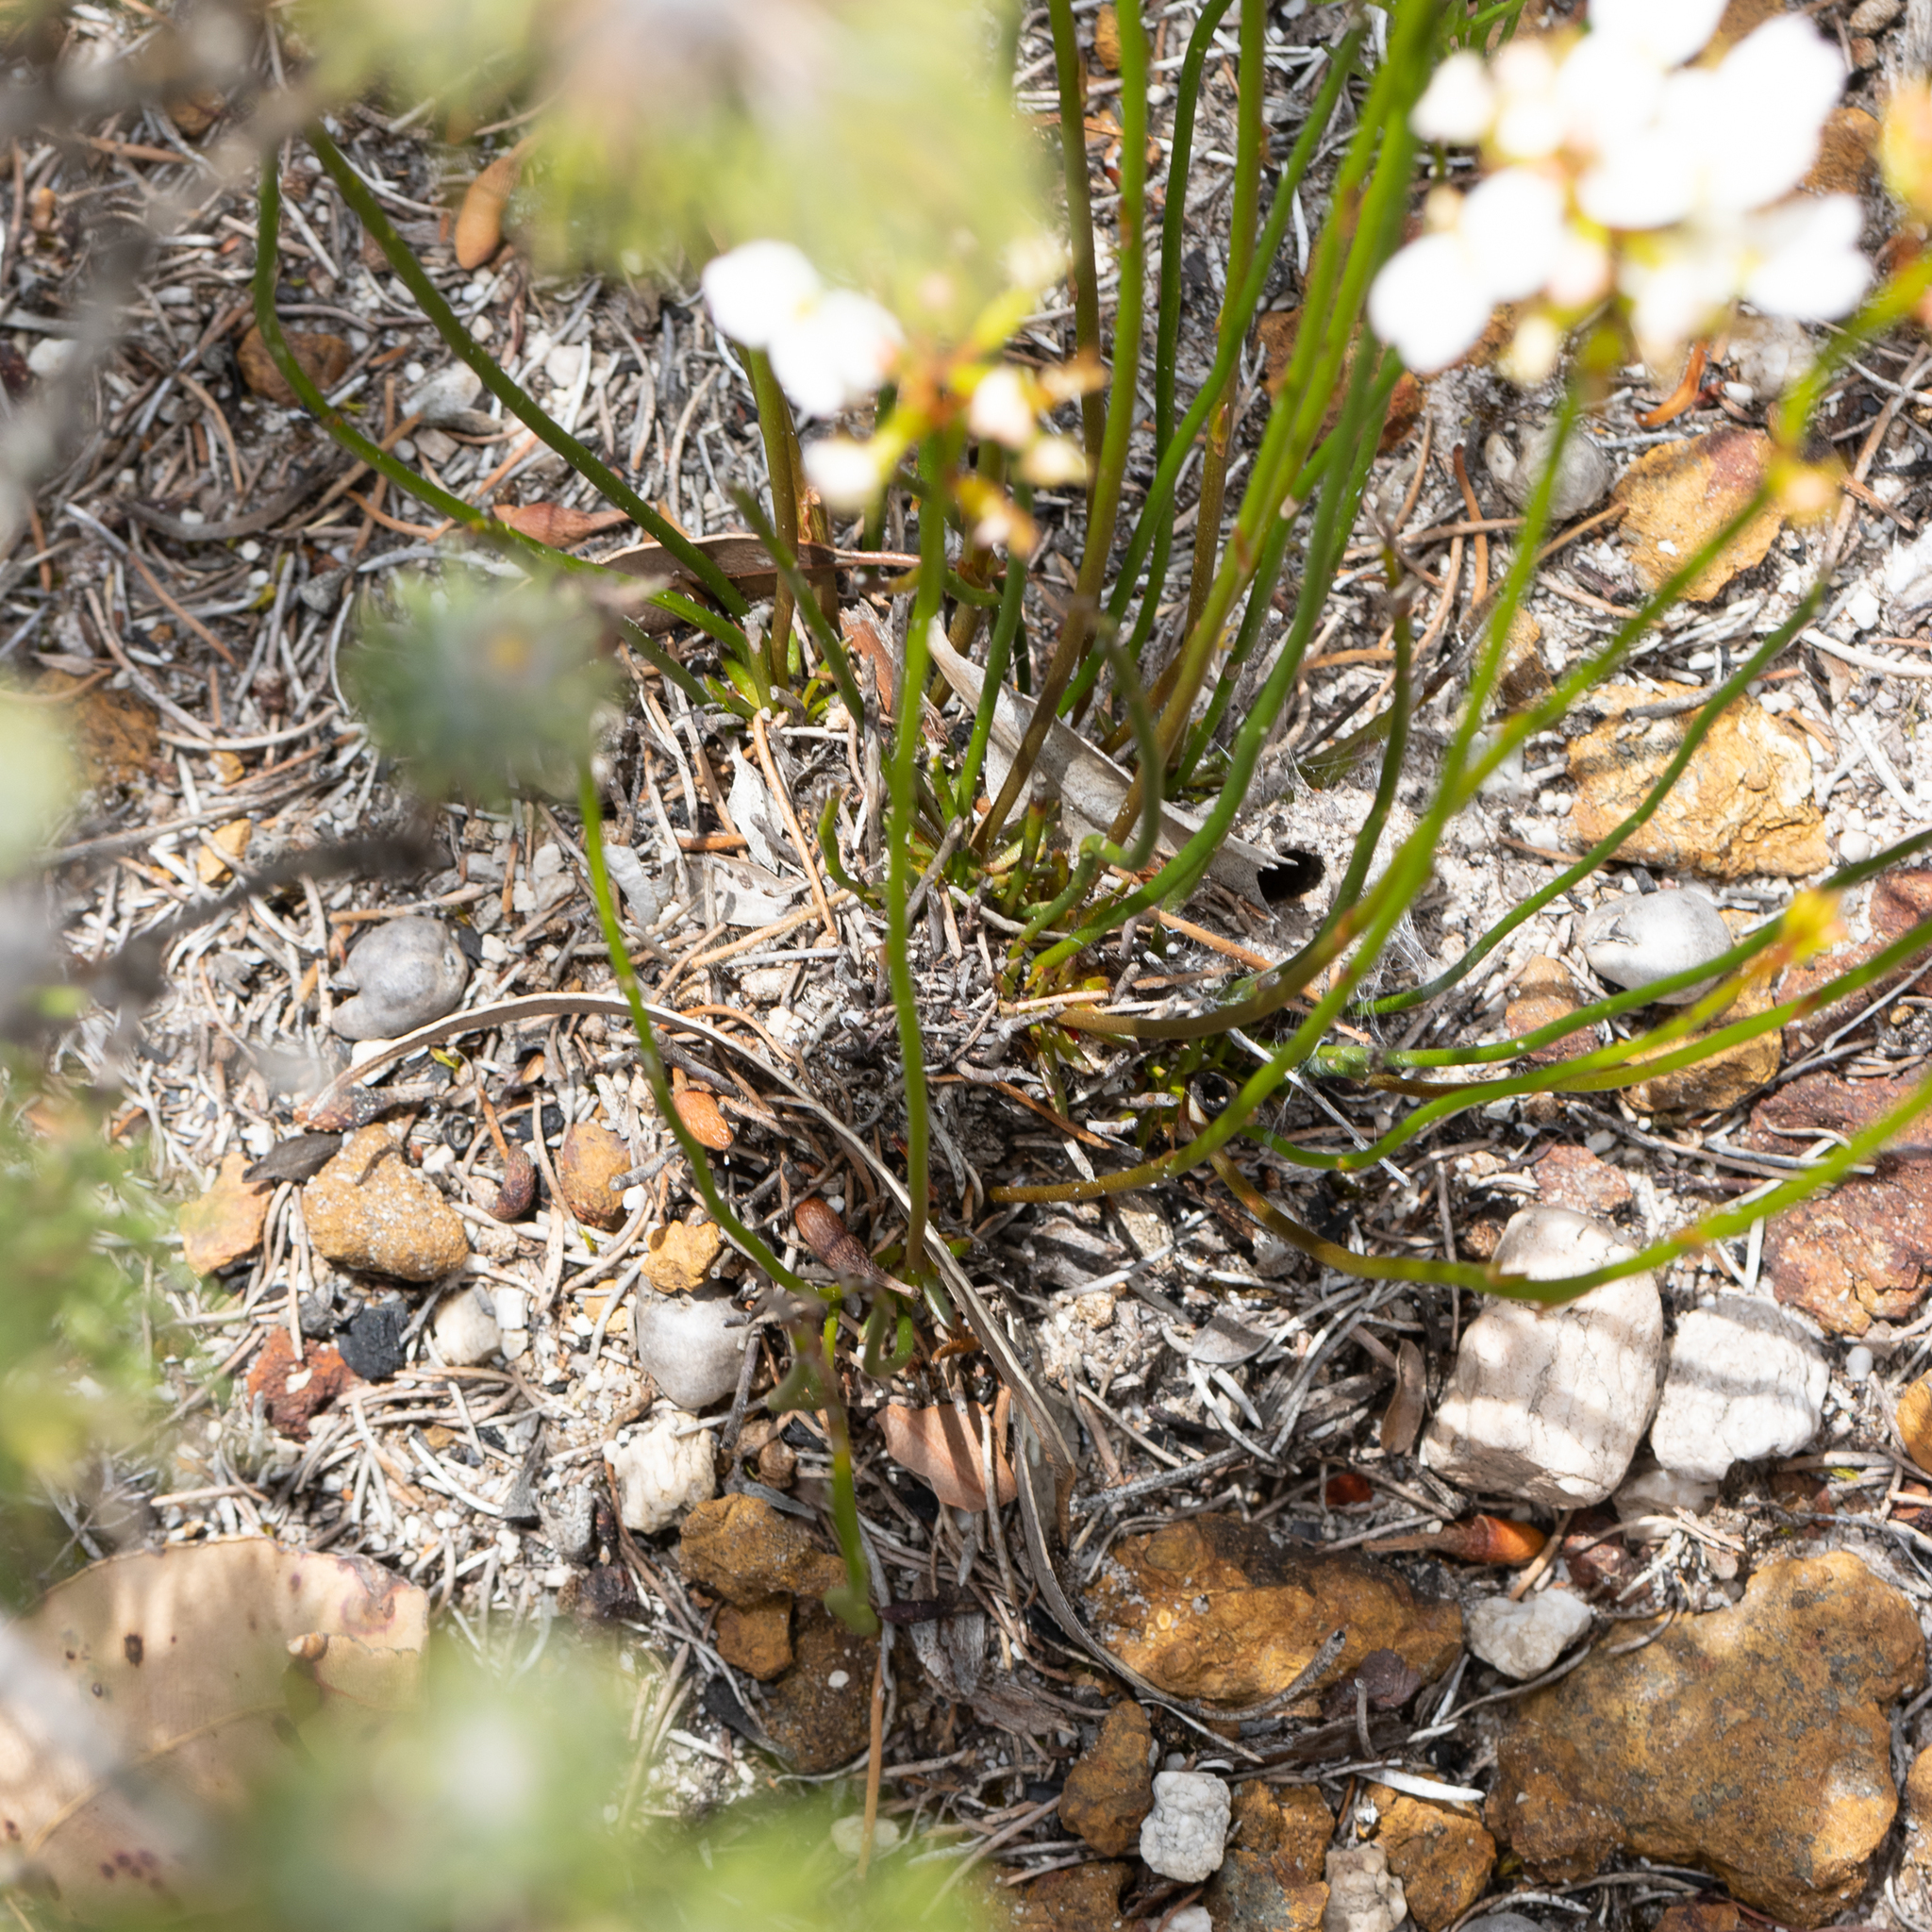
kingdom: Plantae
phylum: Tracheophyta
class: Magnoliopsida
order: Asterales
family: Stylidiaceae
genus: Stylidium
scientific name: Stylidium junceum
